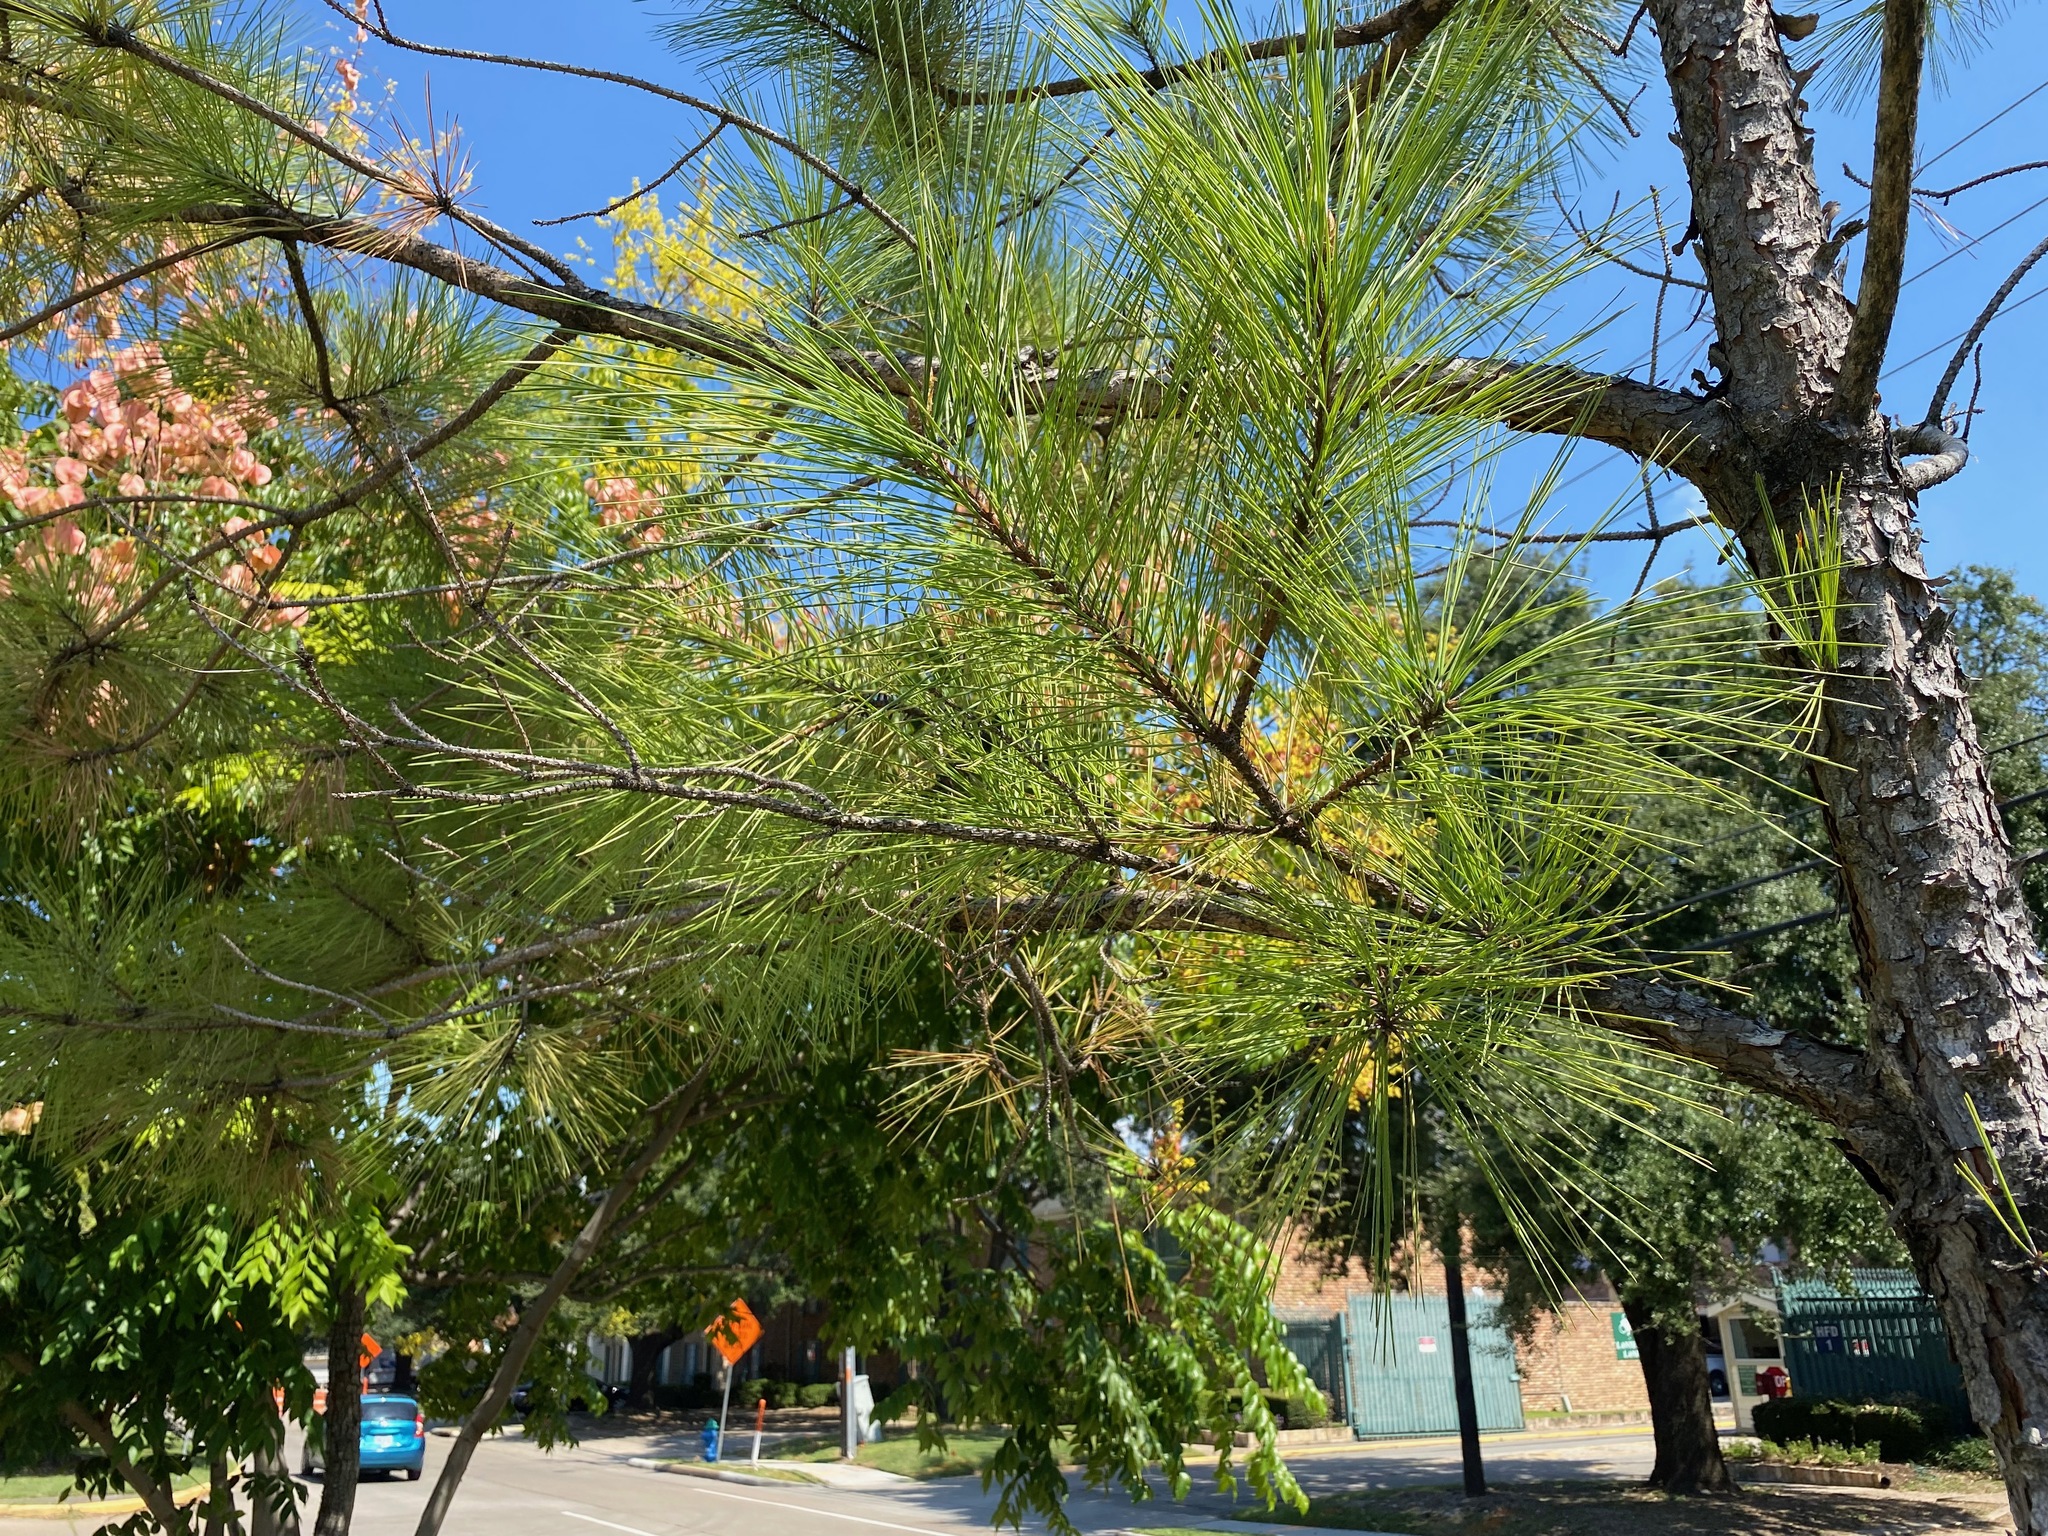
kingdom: Plantae
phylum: Tracheophyta
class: Pinopsida
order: Pinales
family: Pinaceae
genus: Pinus
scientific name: Pinus taeda
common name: Loblolly pine
